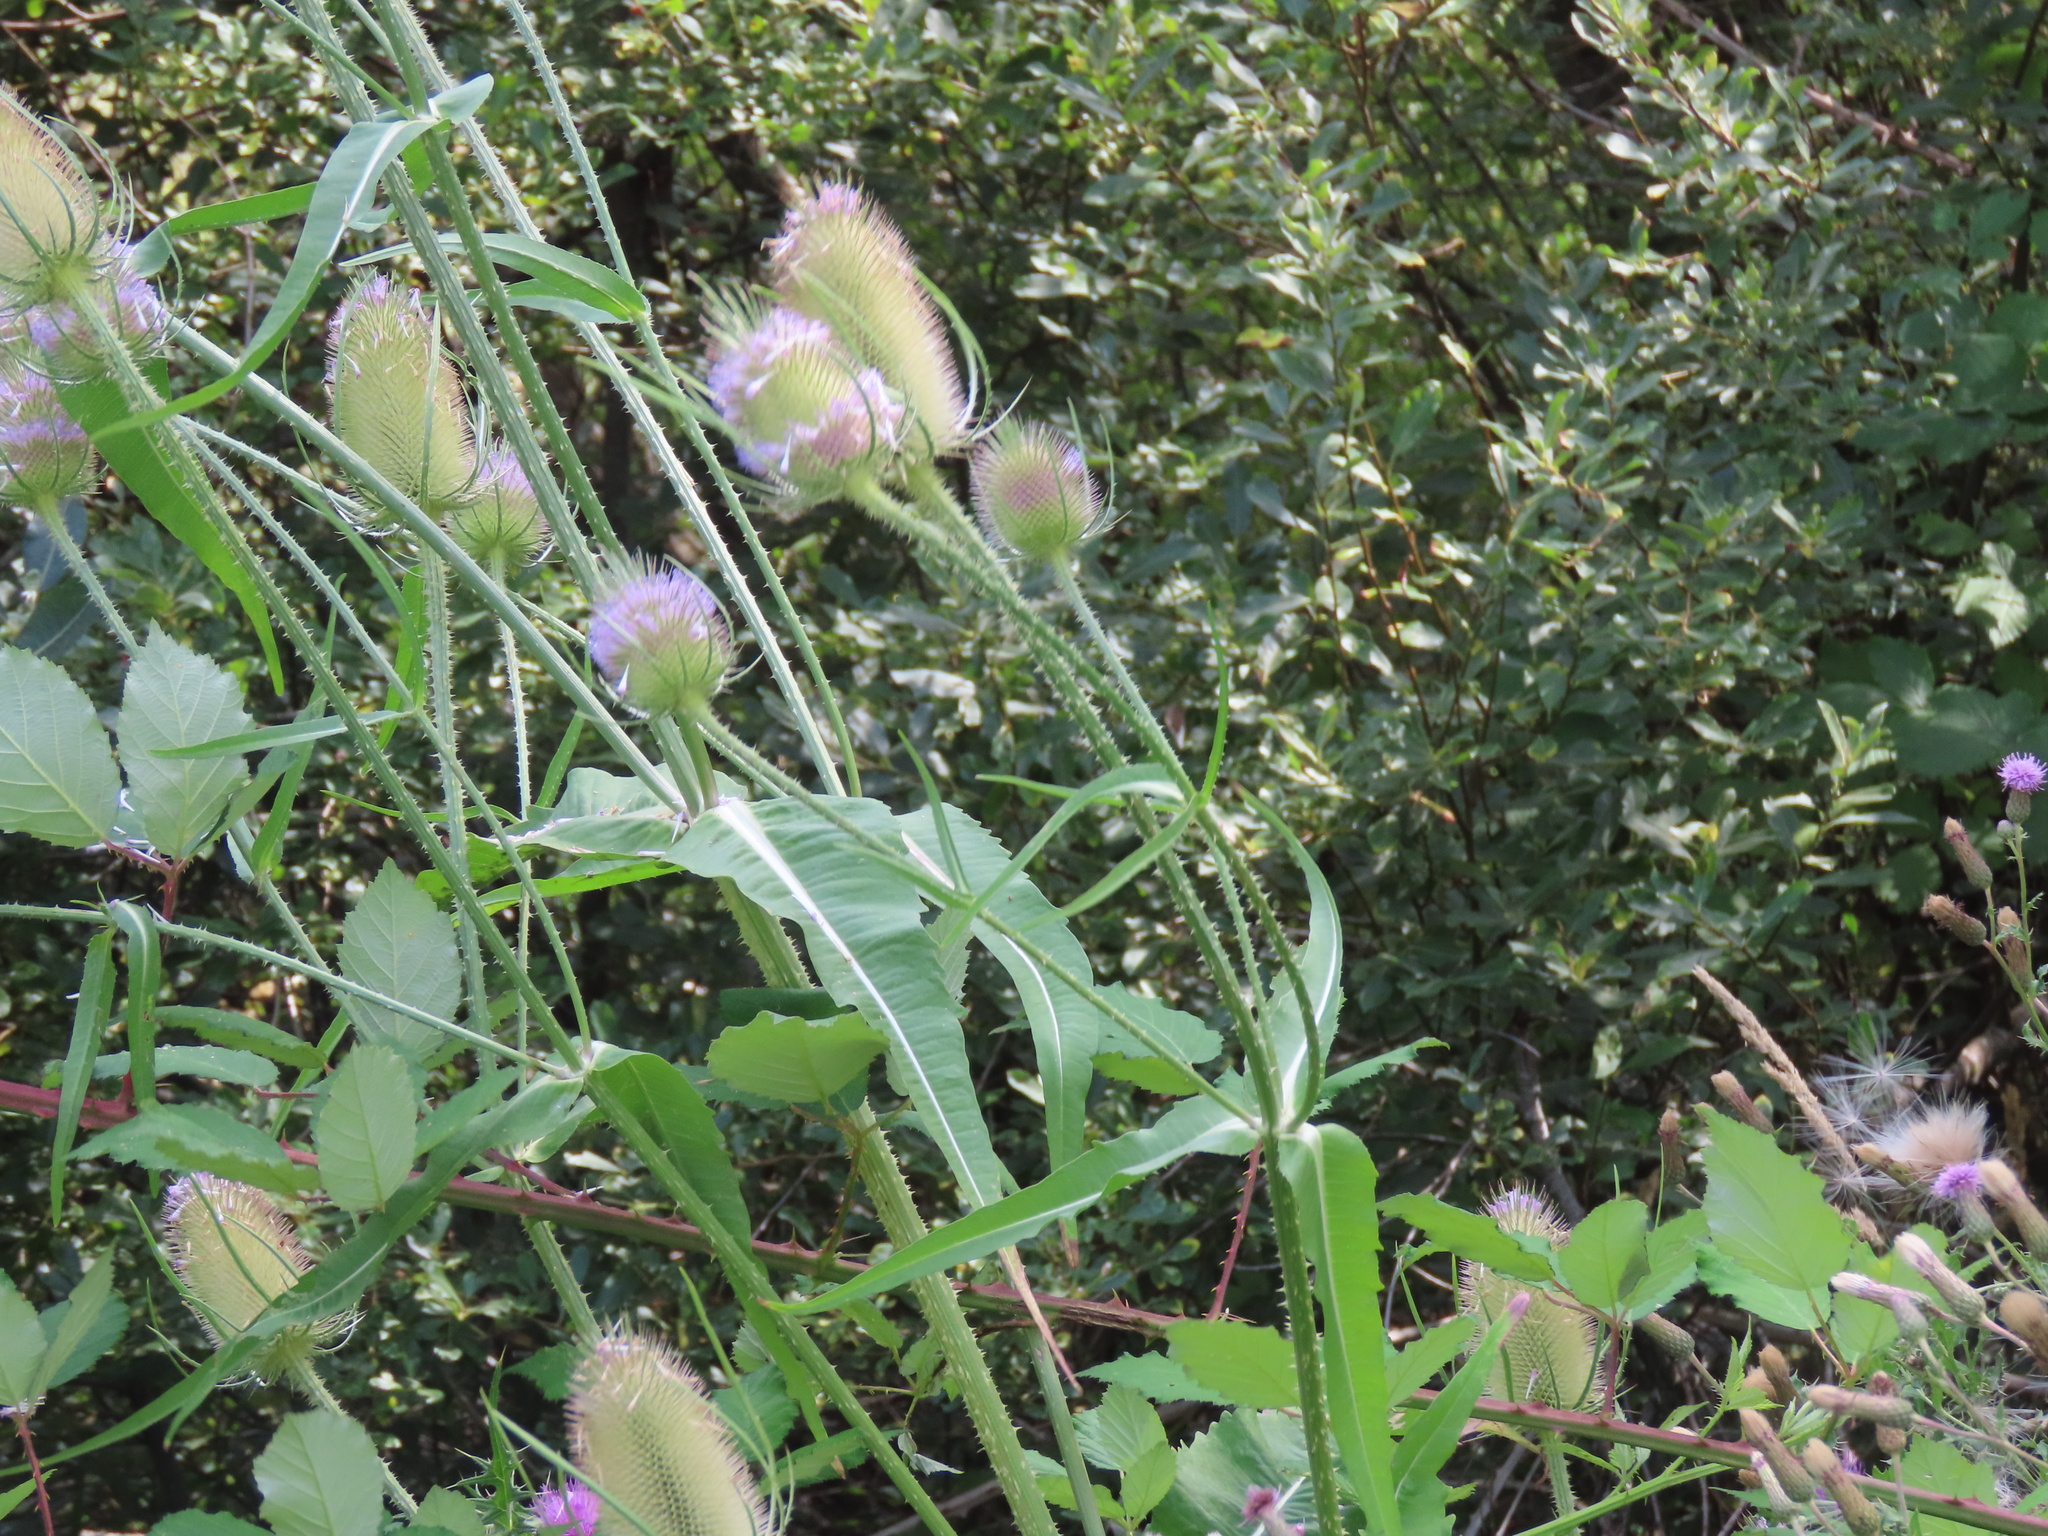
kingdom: Plantae
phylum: Tracheophyta
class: Magnoliopsida
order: Dipsacales
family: Caprifoliaceae
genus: Dipsacus
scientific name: Dipsacus fullonum
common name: Teasel
